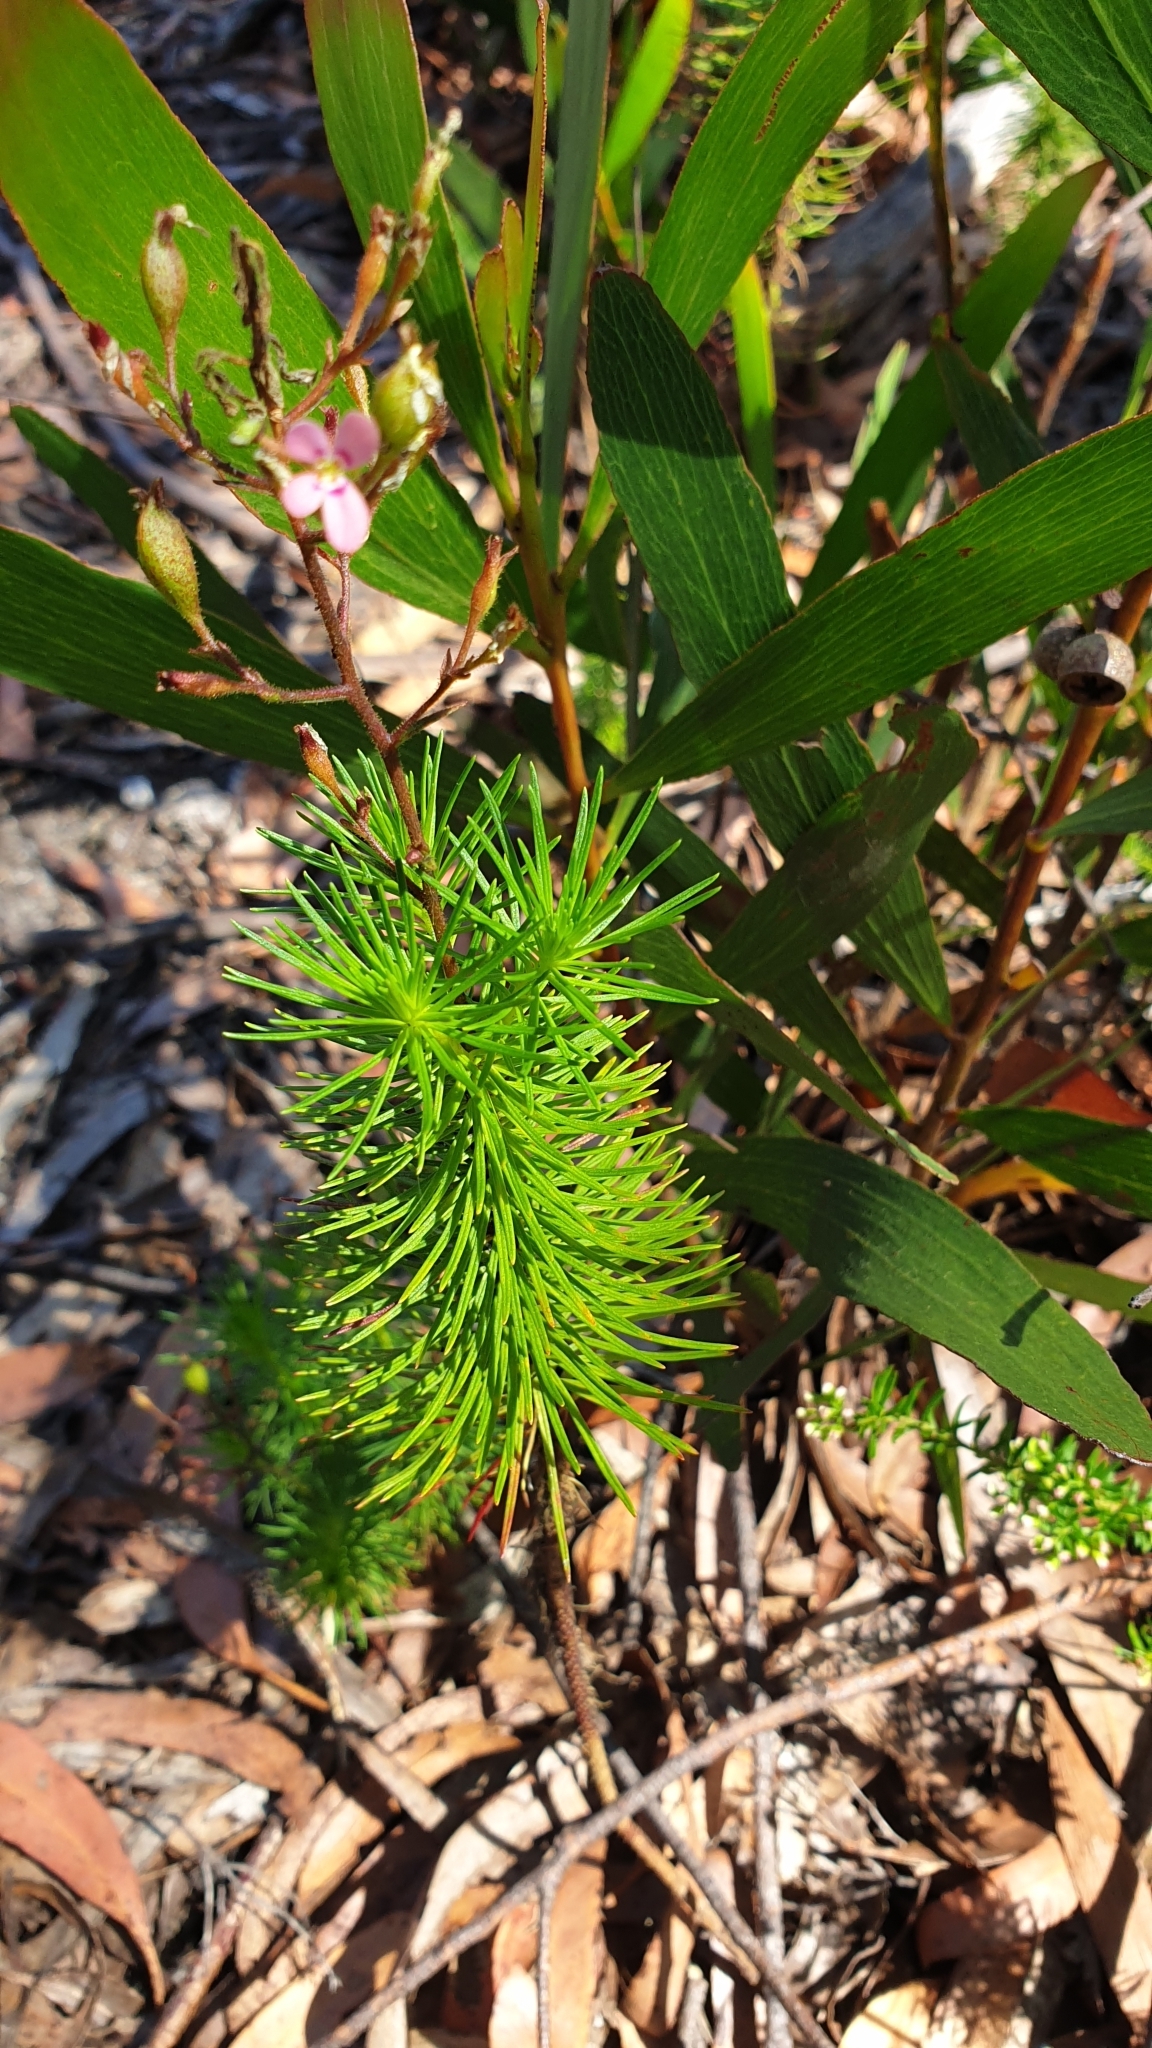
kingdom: Plantae
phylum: Tracheophyta
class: Magnoliopsida
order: Asterales
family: Stylidiaceae
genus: Stylidium
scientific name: Stylidium laricifolium
